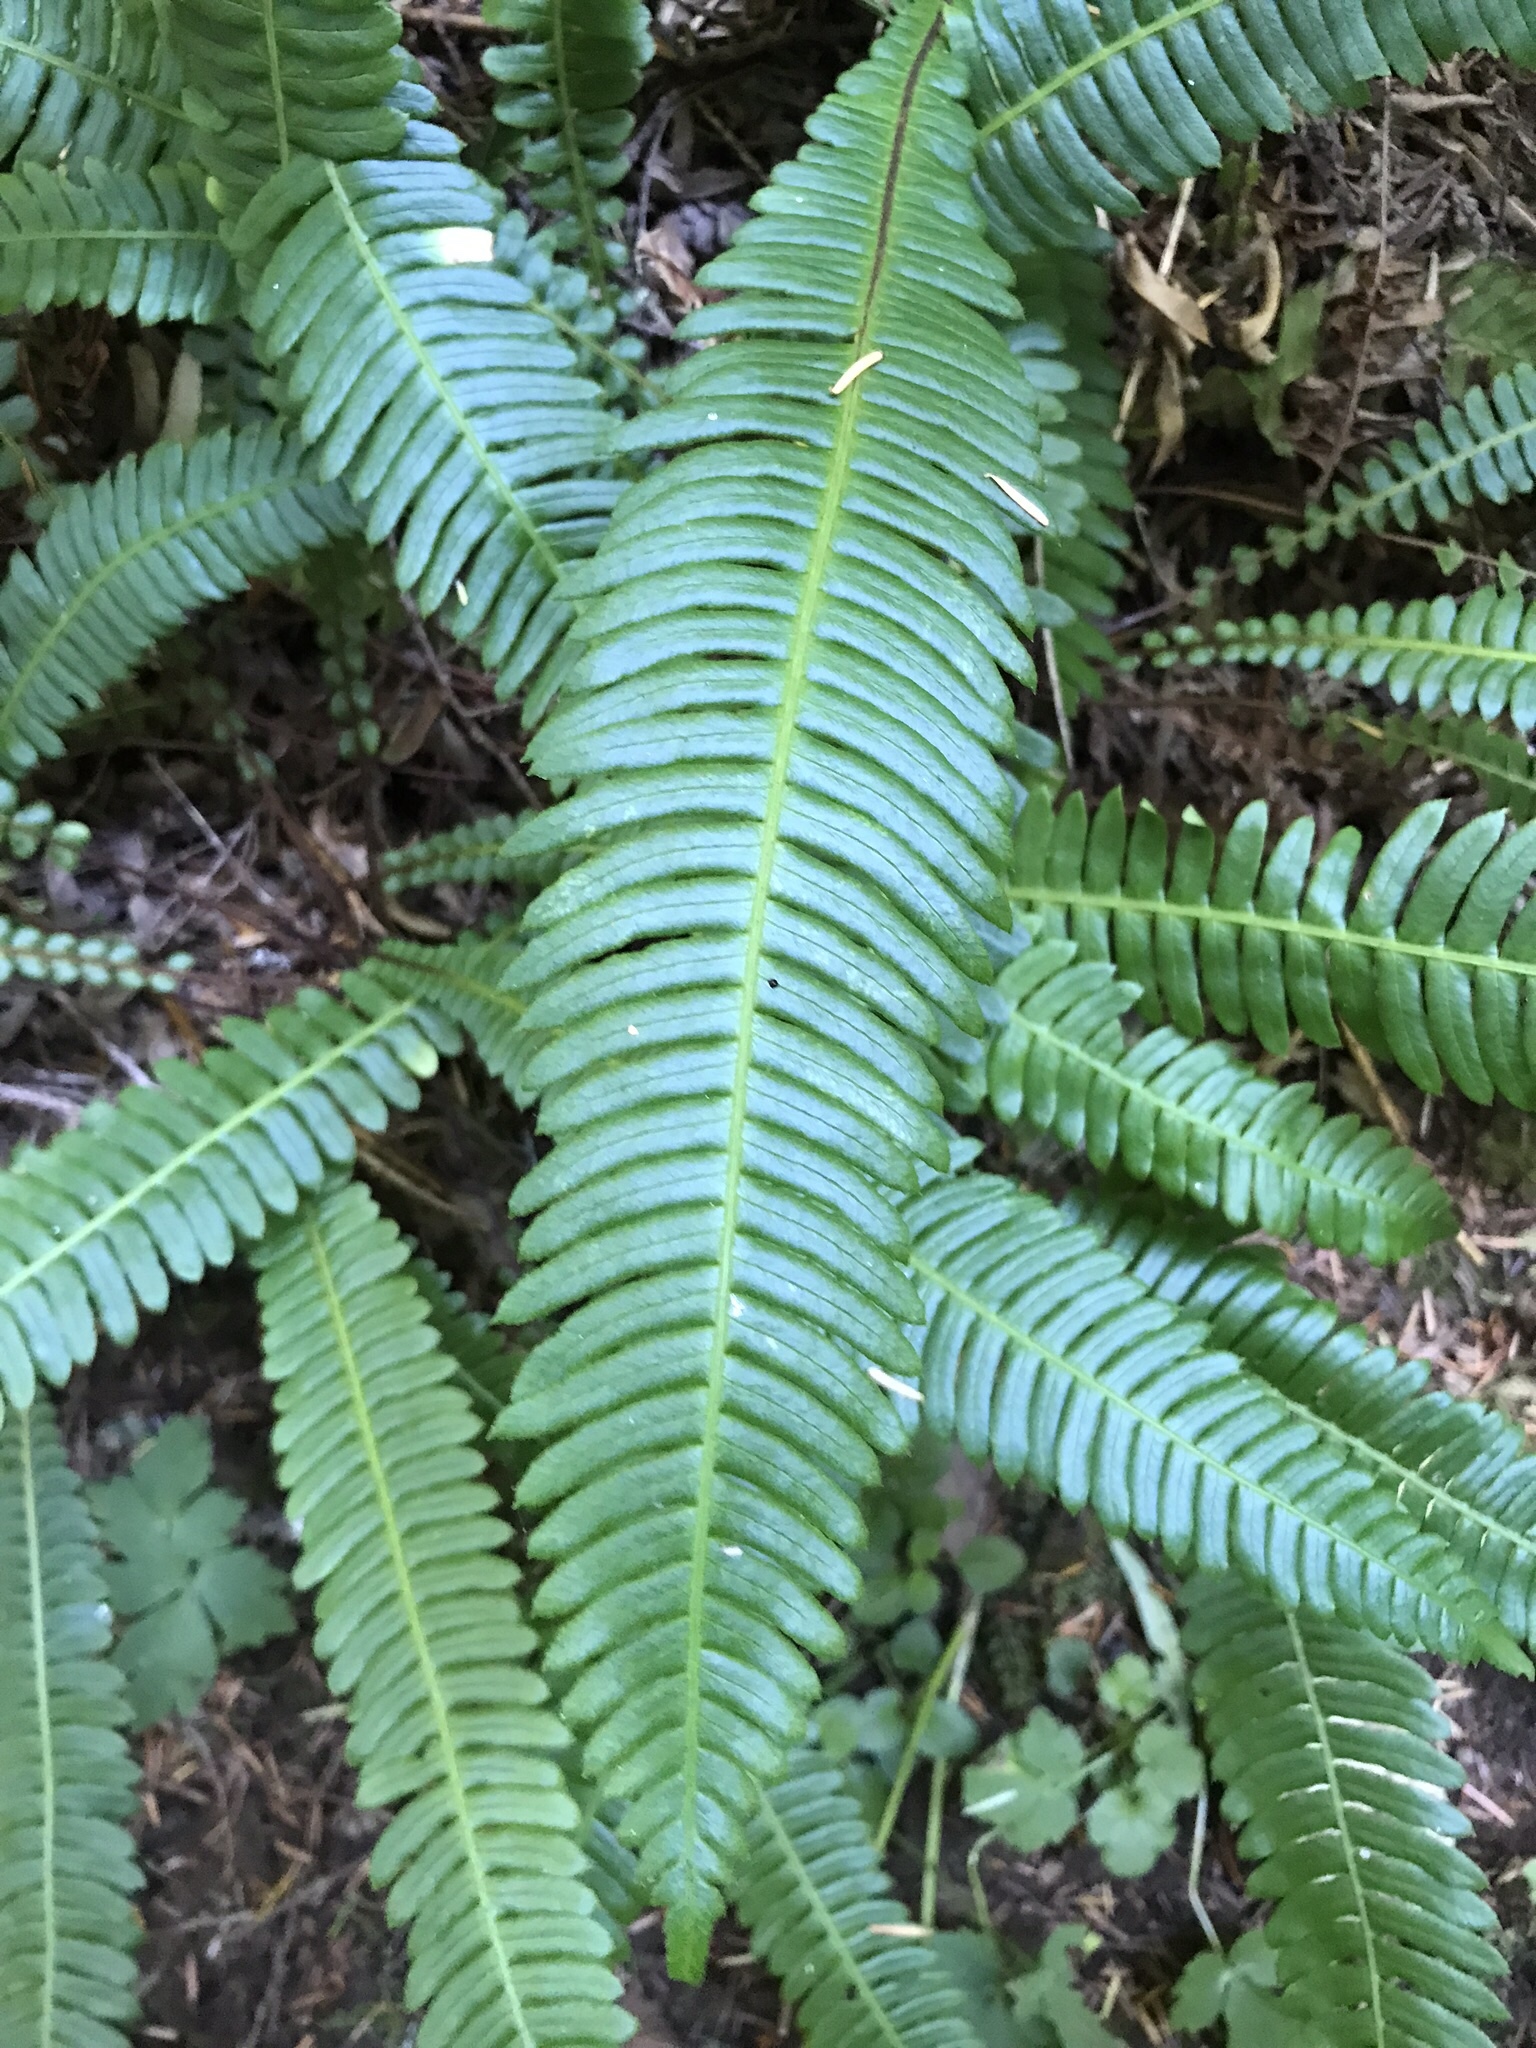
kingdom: Plantae
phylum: Tracheophyta
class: Polypodiopsida
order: Polypodiales
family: Blechnaceae
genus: Struthiopteris
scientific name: Struthiopteris spicant
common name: Deer fern
